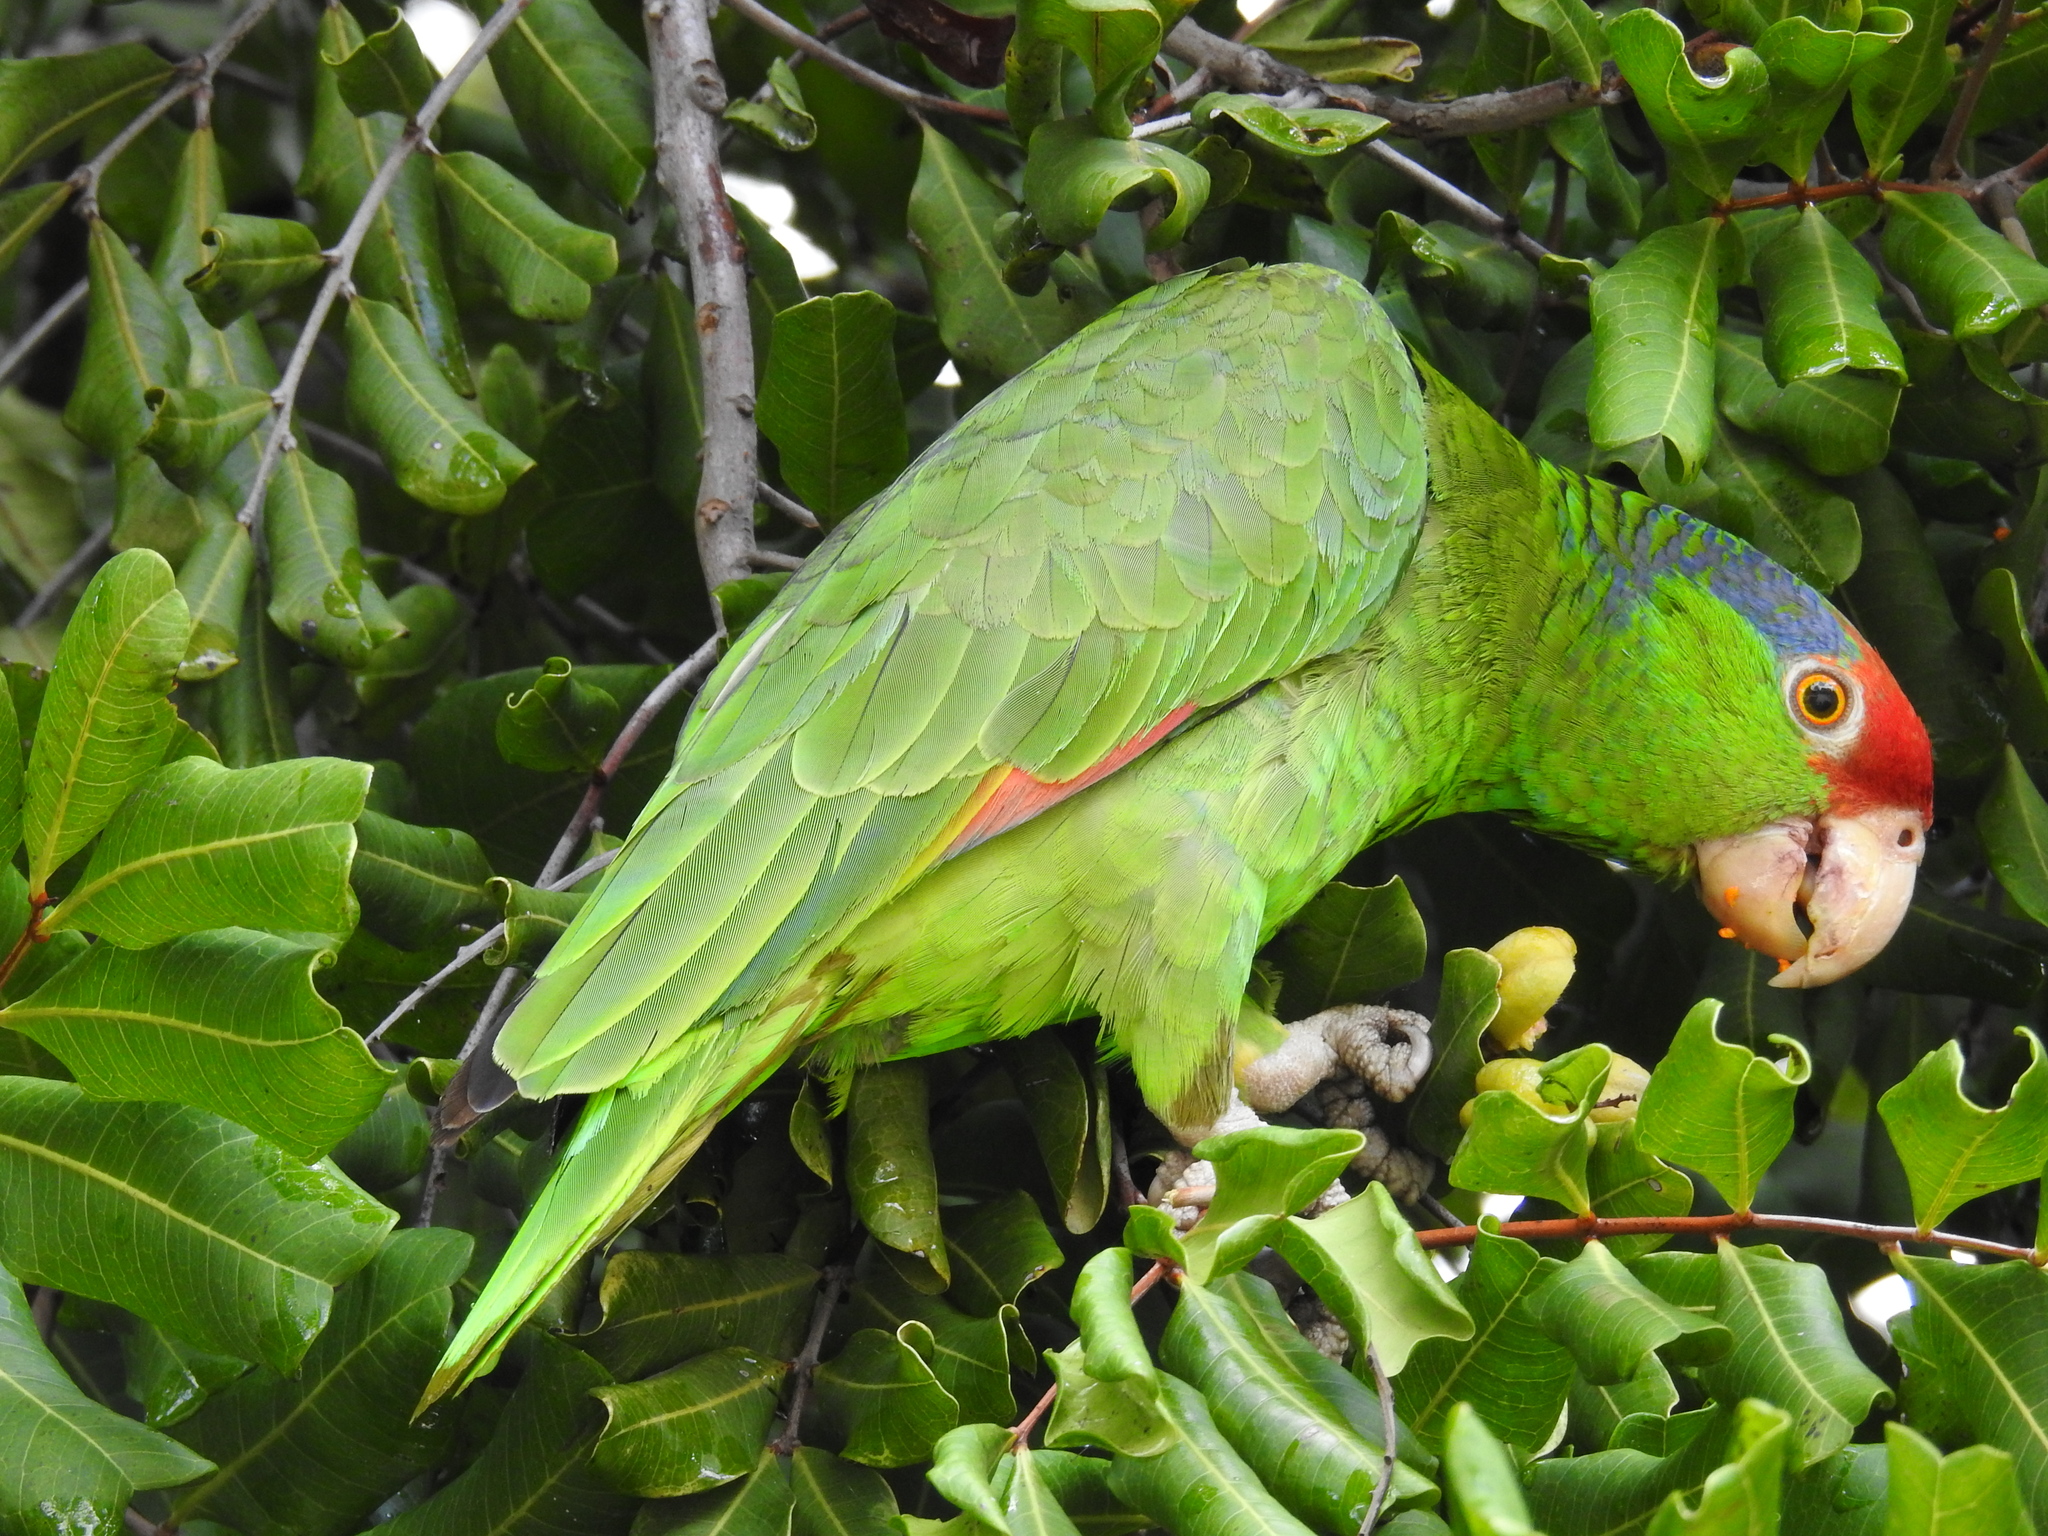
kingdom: Animalia
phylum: Chordata
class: Aves
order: Psittaciformes
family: Psittacidae
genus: Amazona
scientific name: Amazona viridigenalis
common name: Red-crowned amazon
